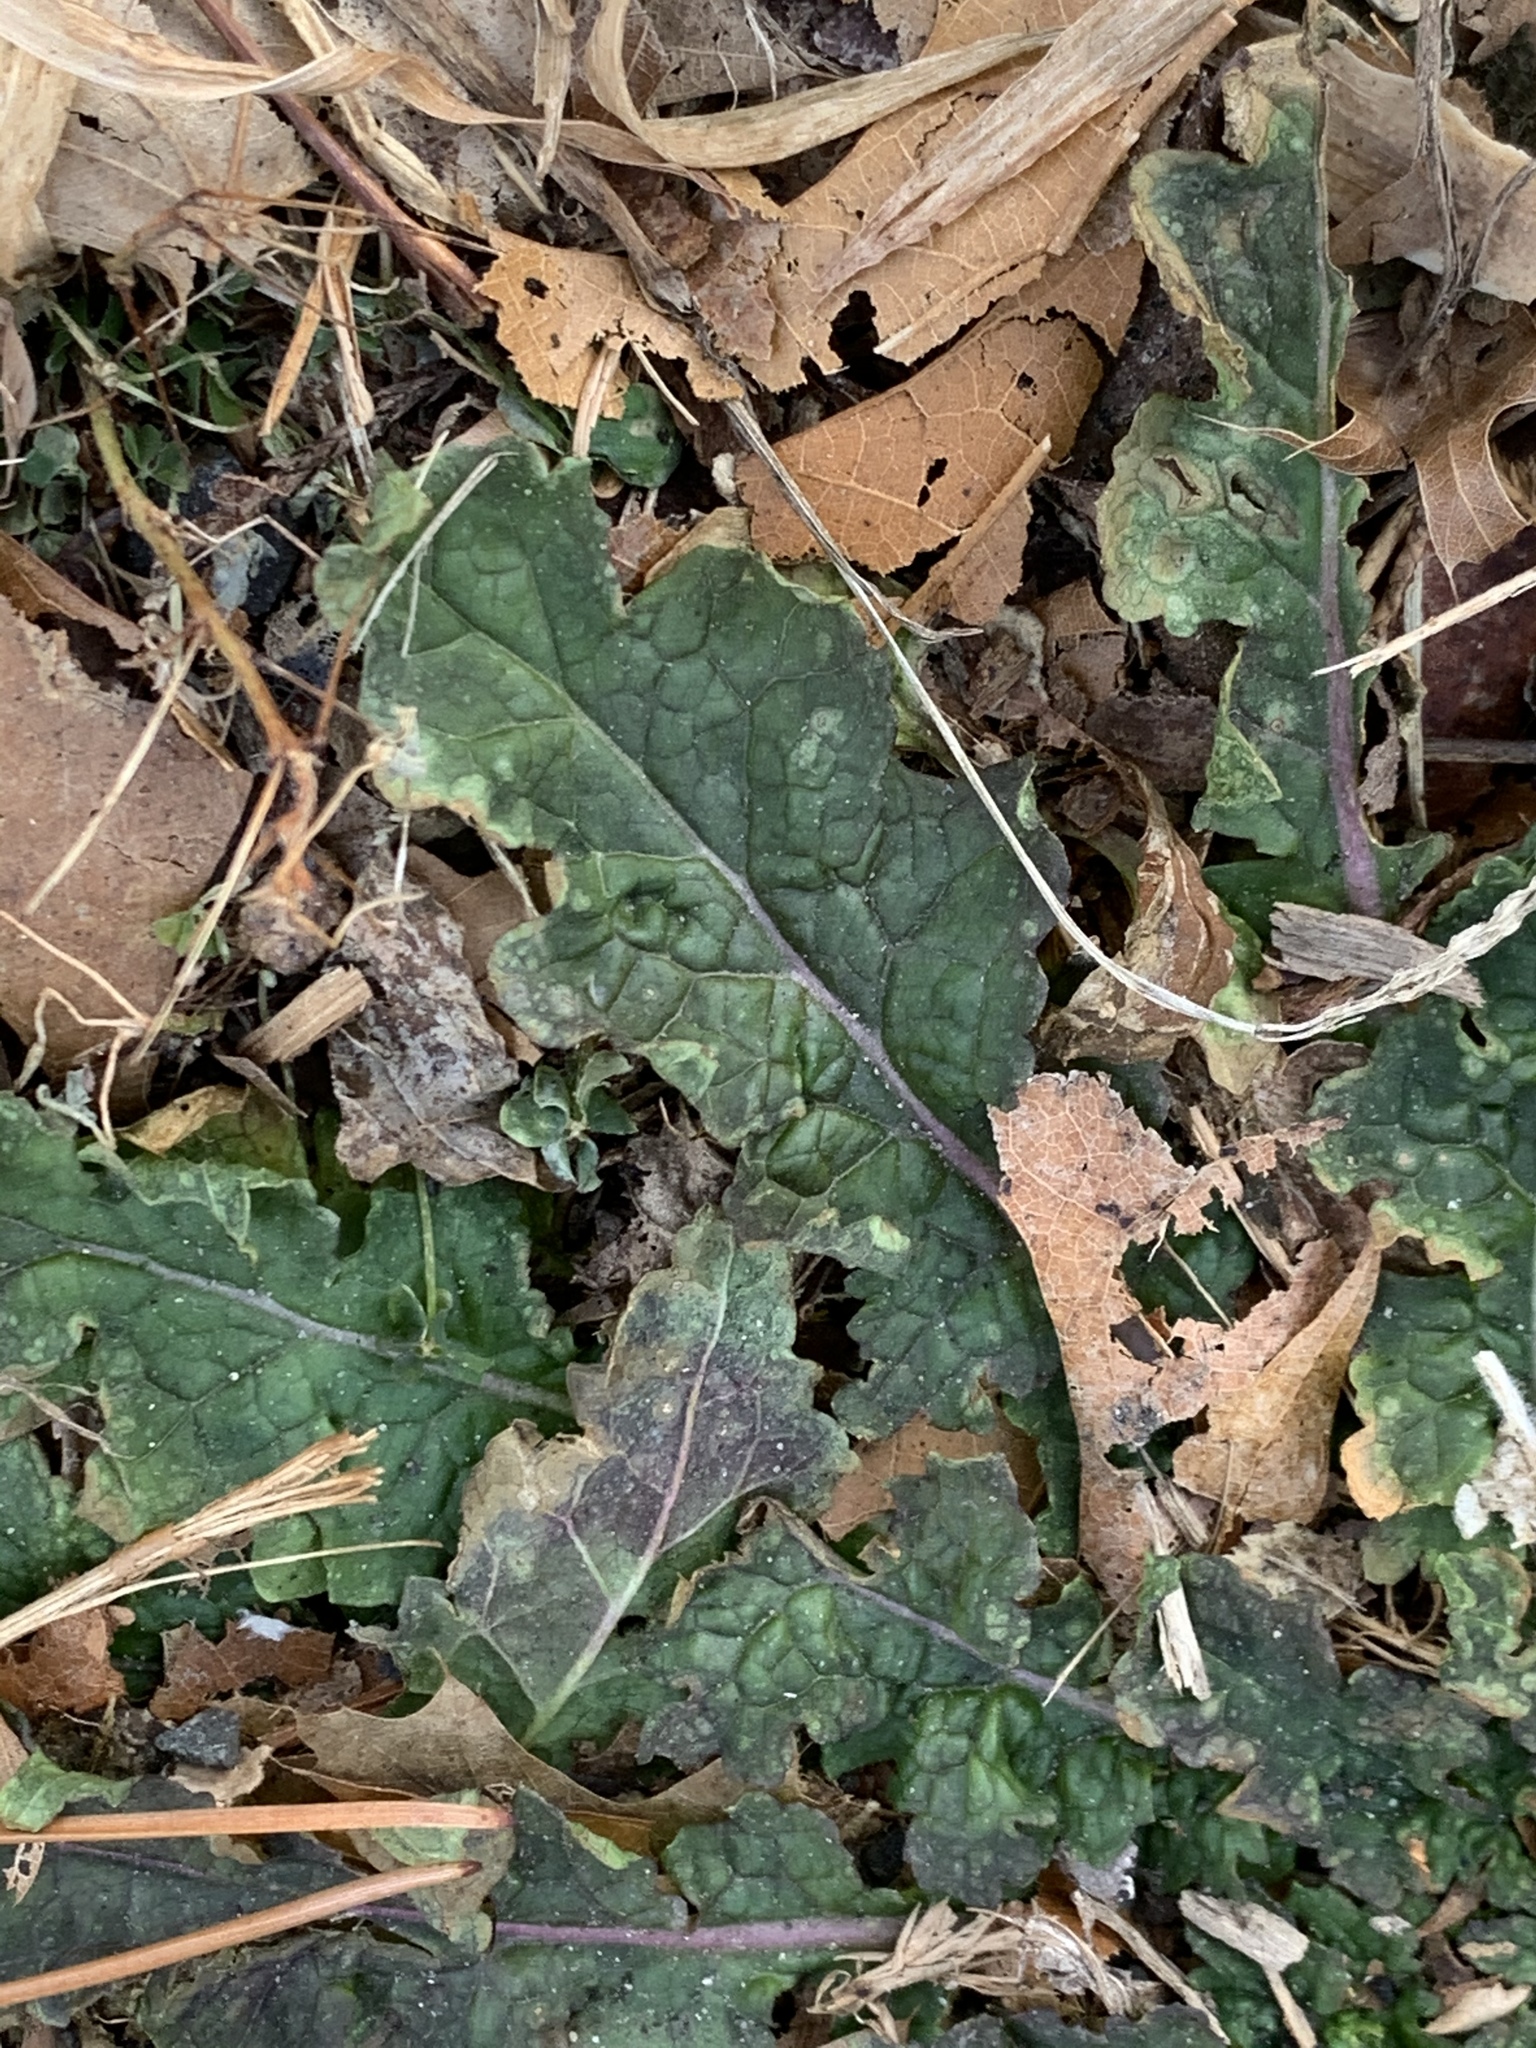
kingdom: Plantae
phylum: Tracheophyta
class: Magnoliopsida
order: Lamiales
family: Scrophulariaceae
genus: Verbascum
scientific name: Verbascum blattaria
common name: Moth mullein
